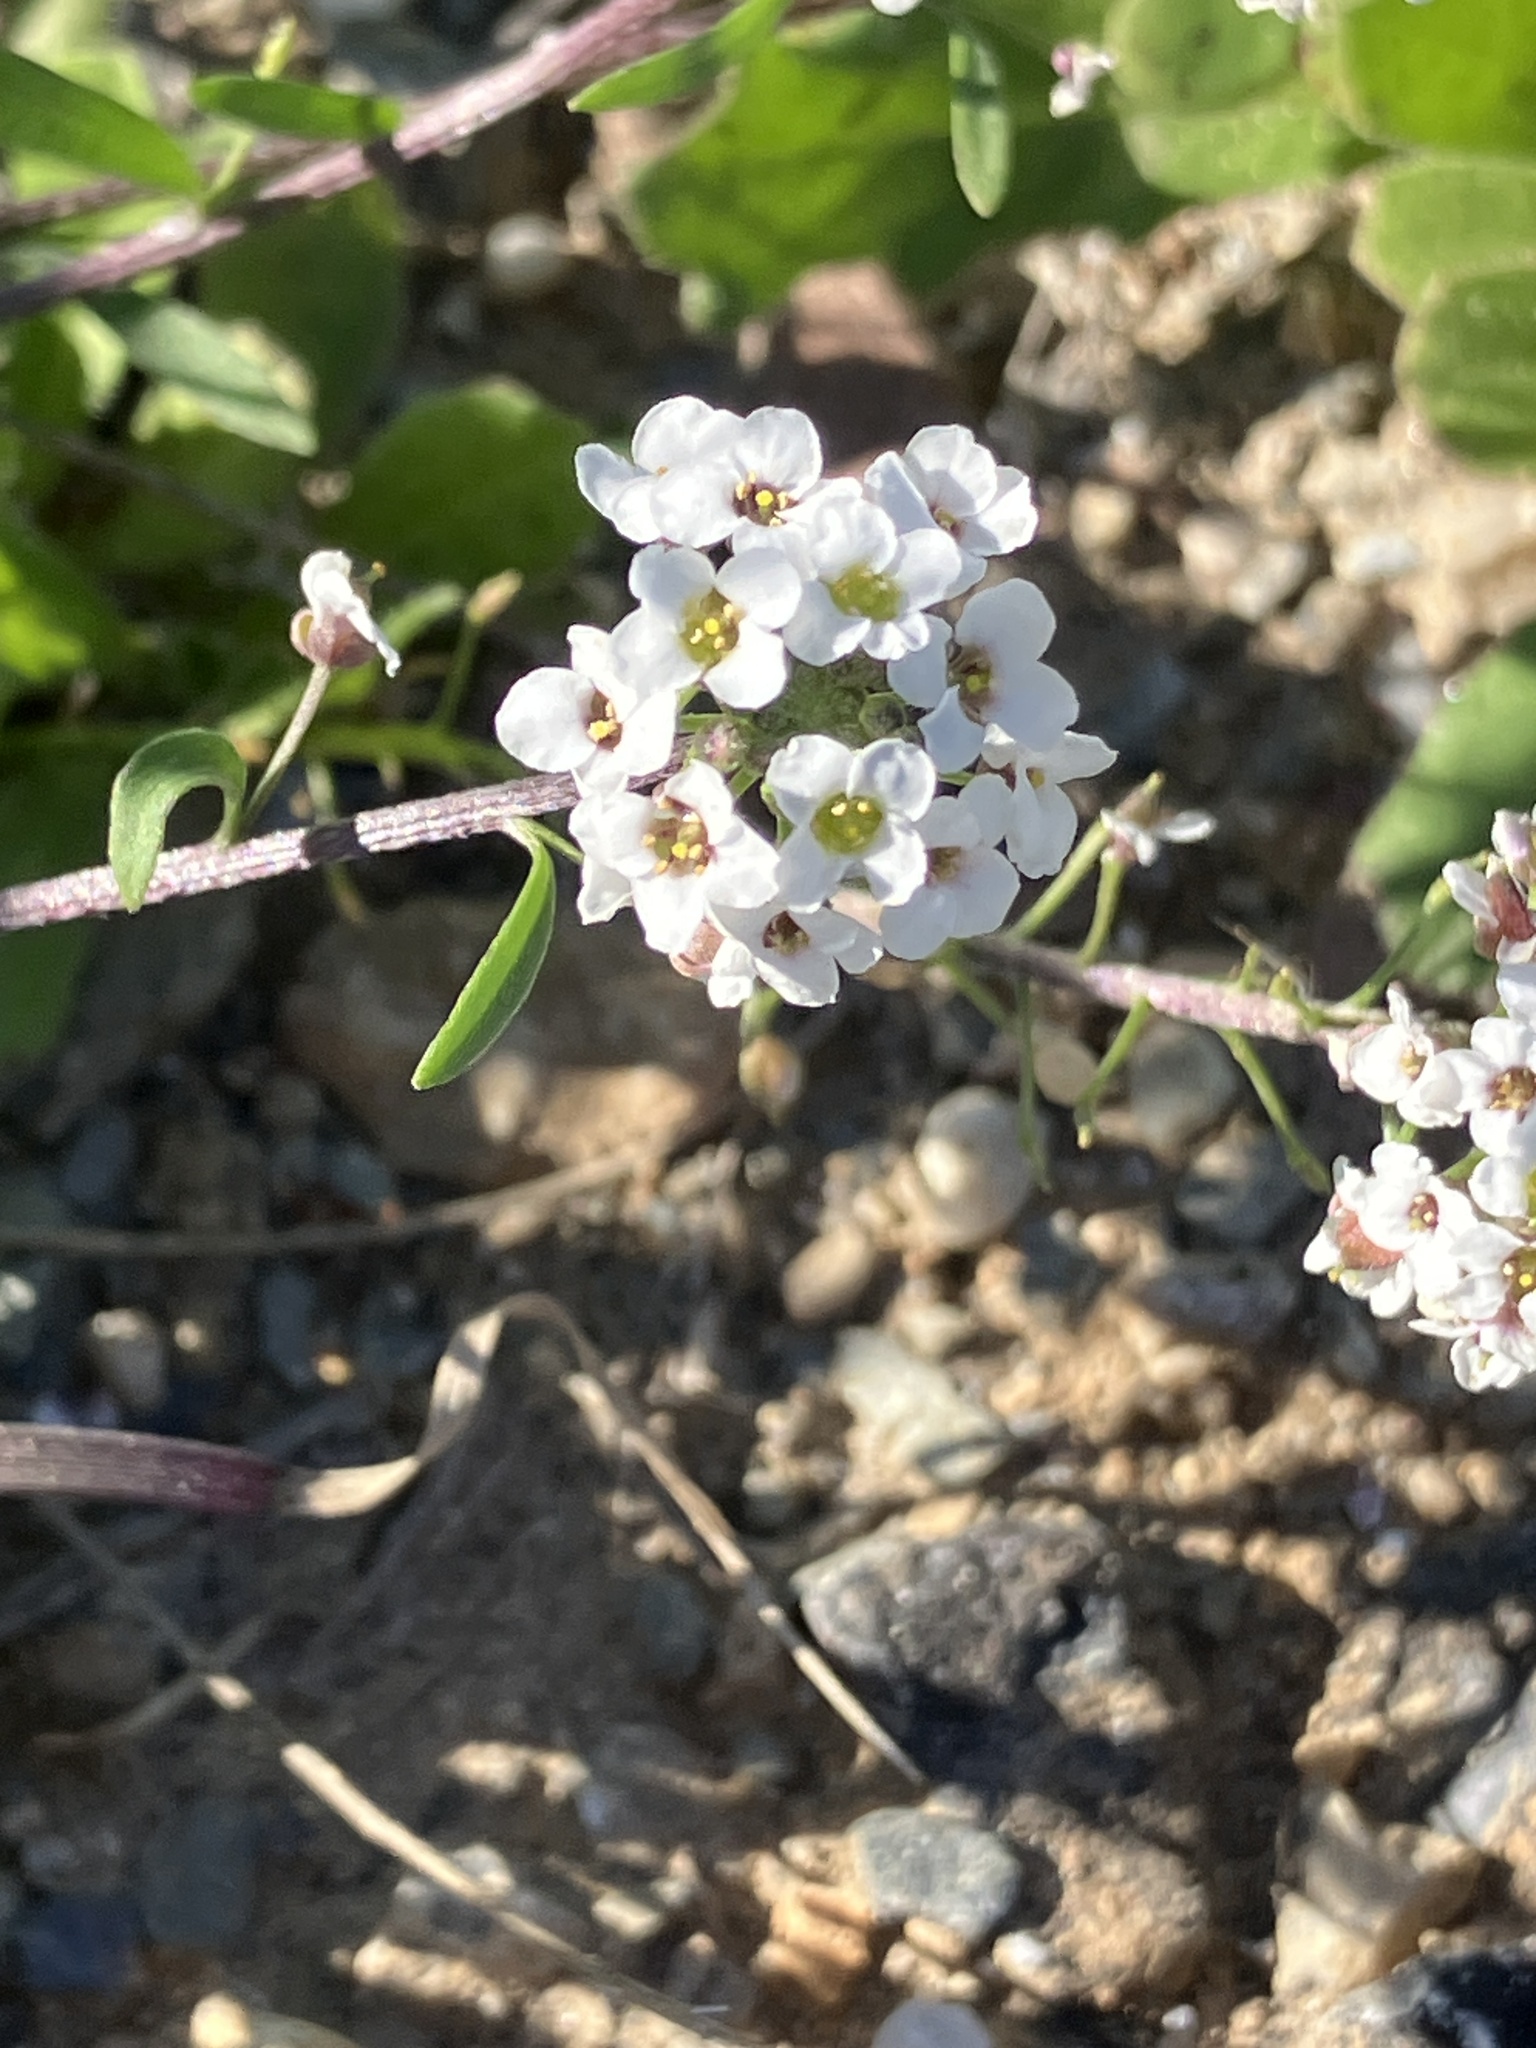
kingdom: Plantae
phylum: Tracheophyta
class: Magnoliopsida
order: Brassicales
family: Brassicaceae
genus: Lobularia
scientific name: Lobularia maritima
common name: Sweet alison
